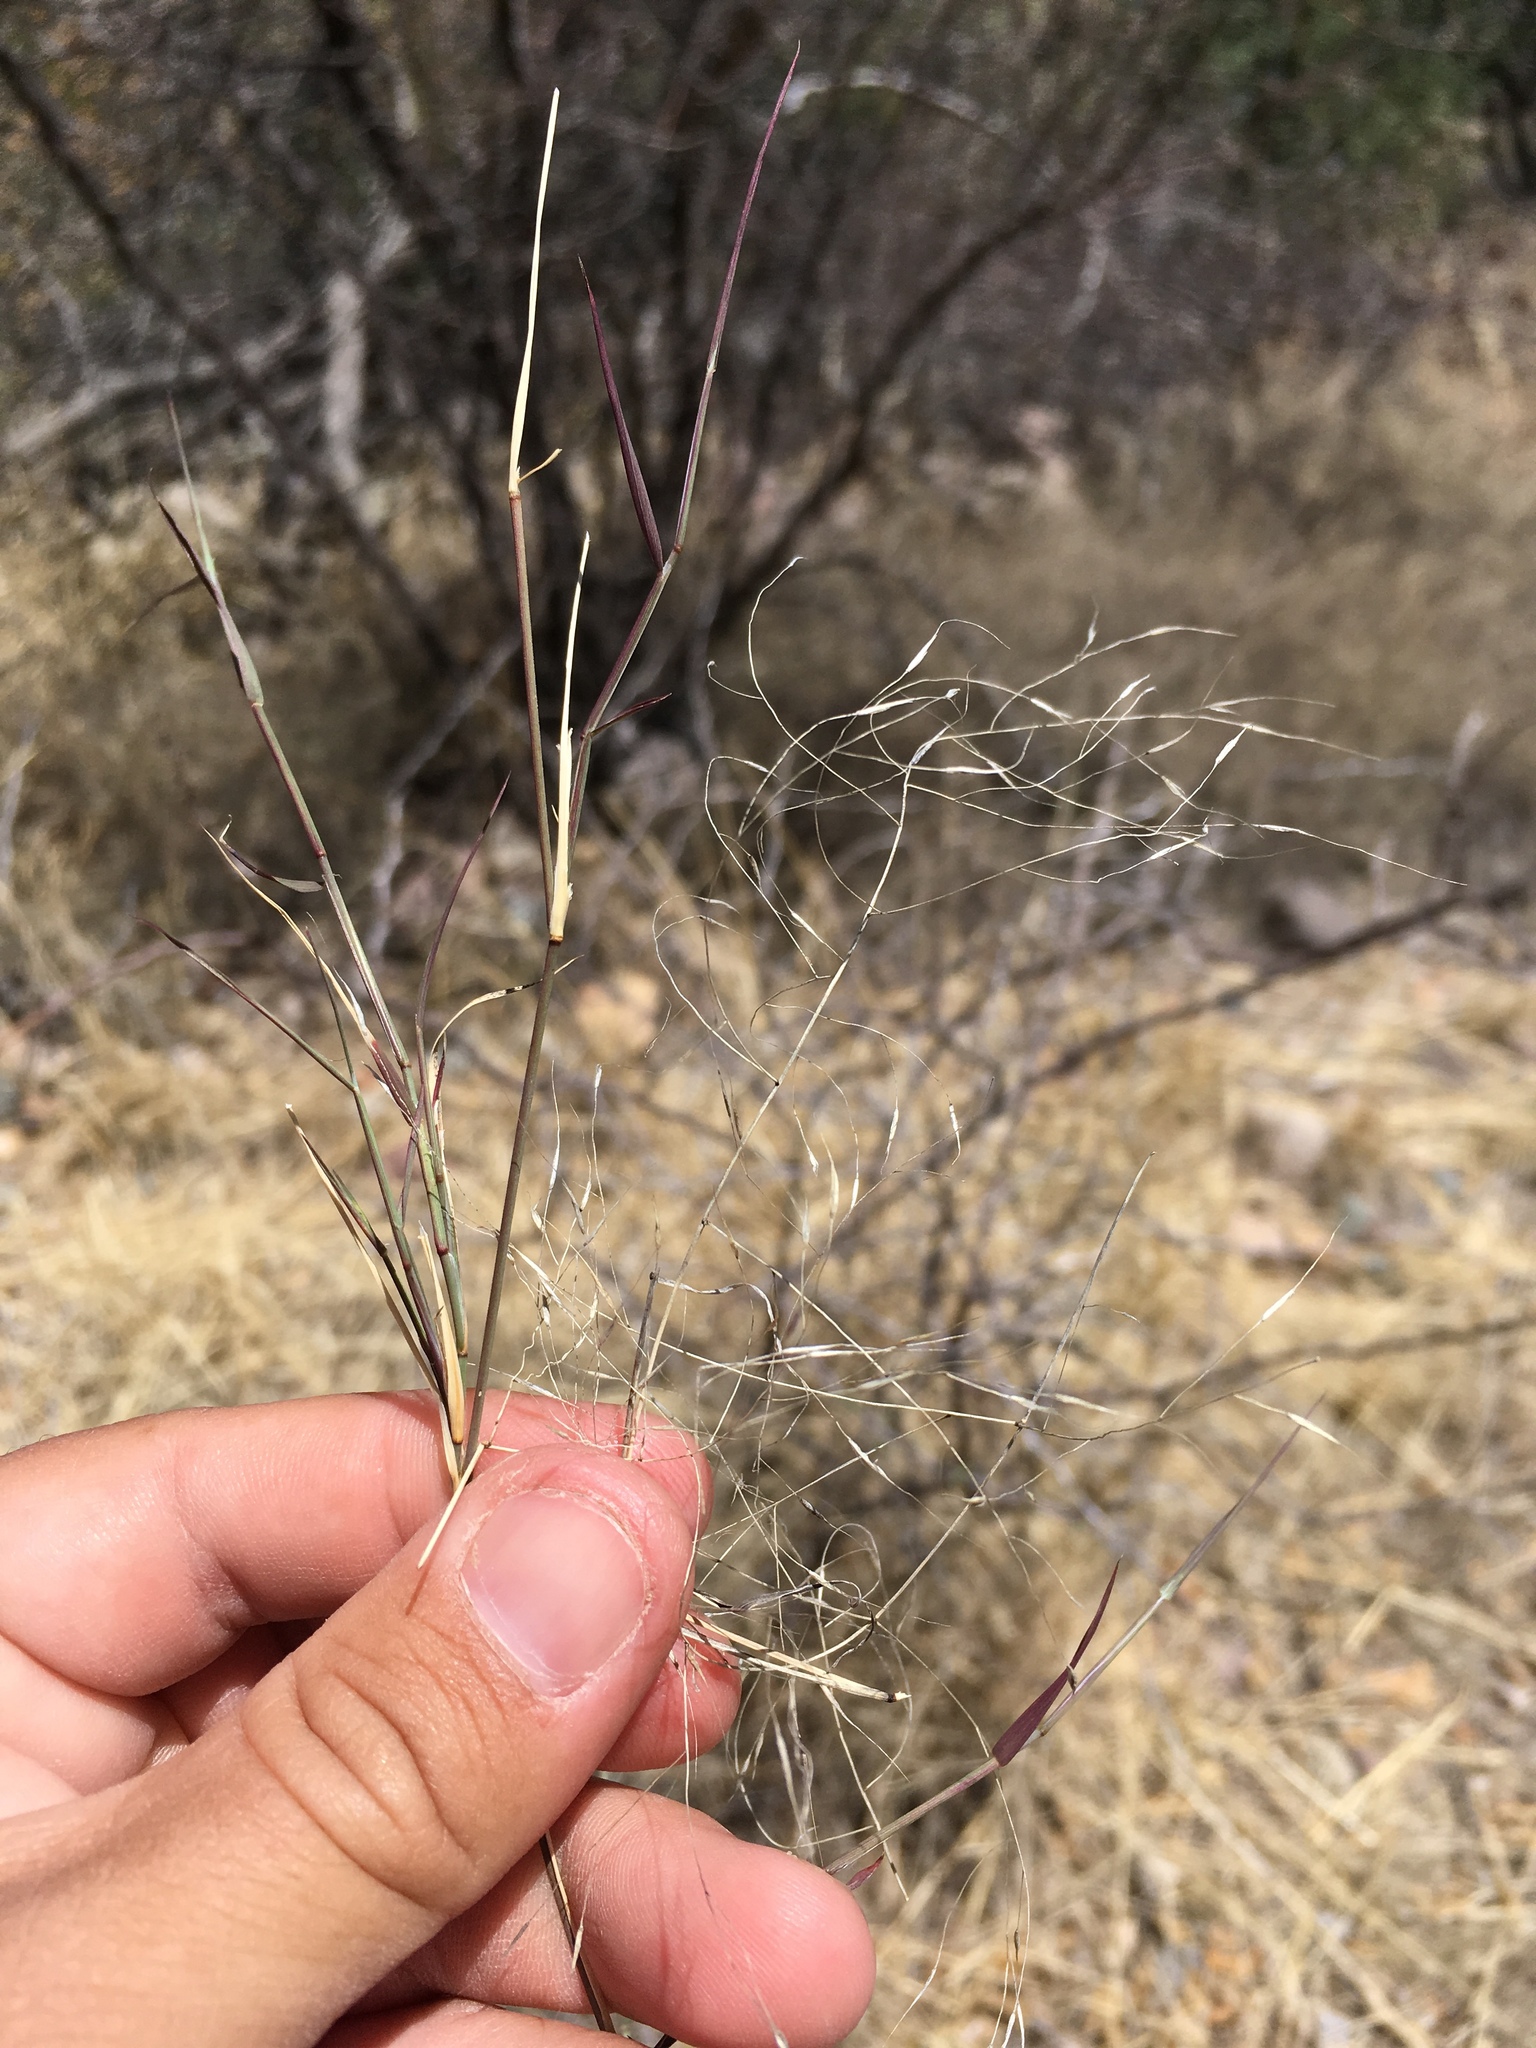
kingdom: Plantae
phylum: Tracheophyta
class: Liliopsida
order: Poales
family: Poaceae
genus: Muhlenbergia
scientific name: Muhlenbergia porteri
